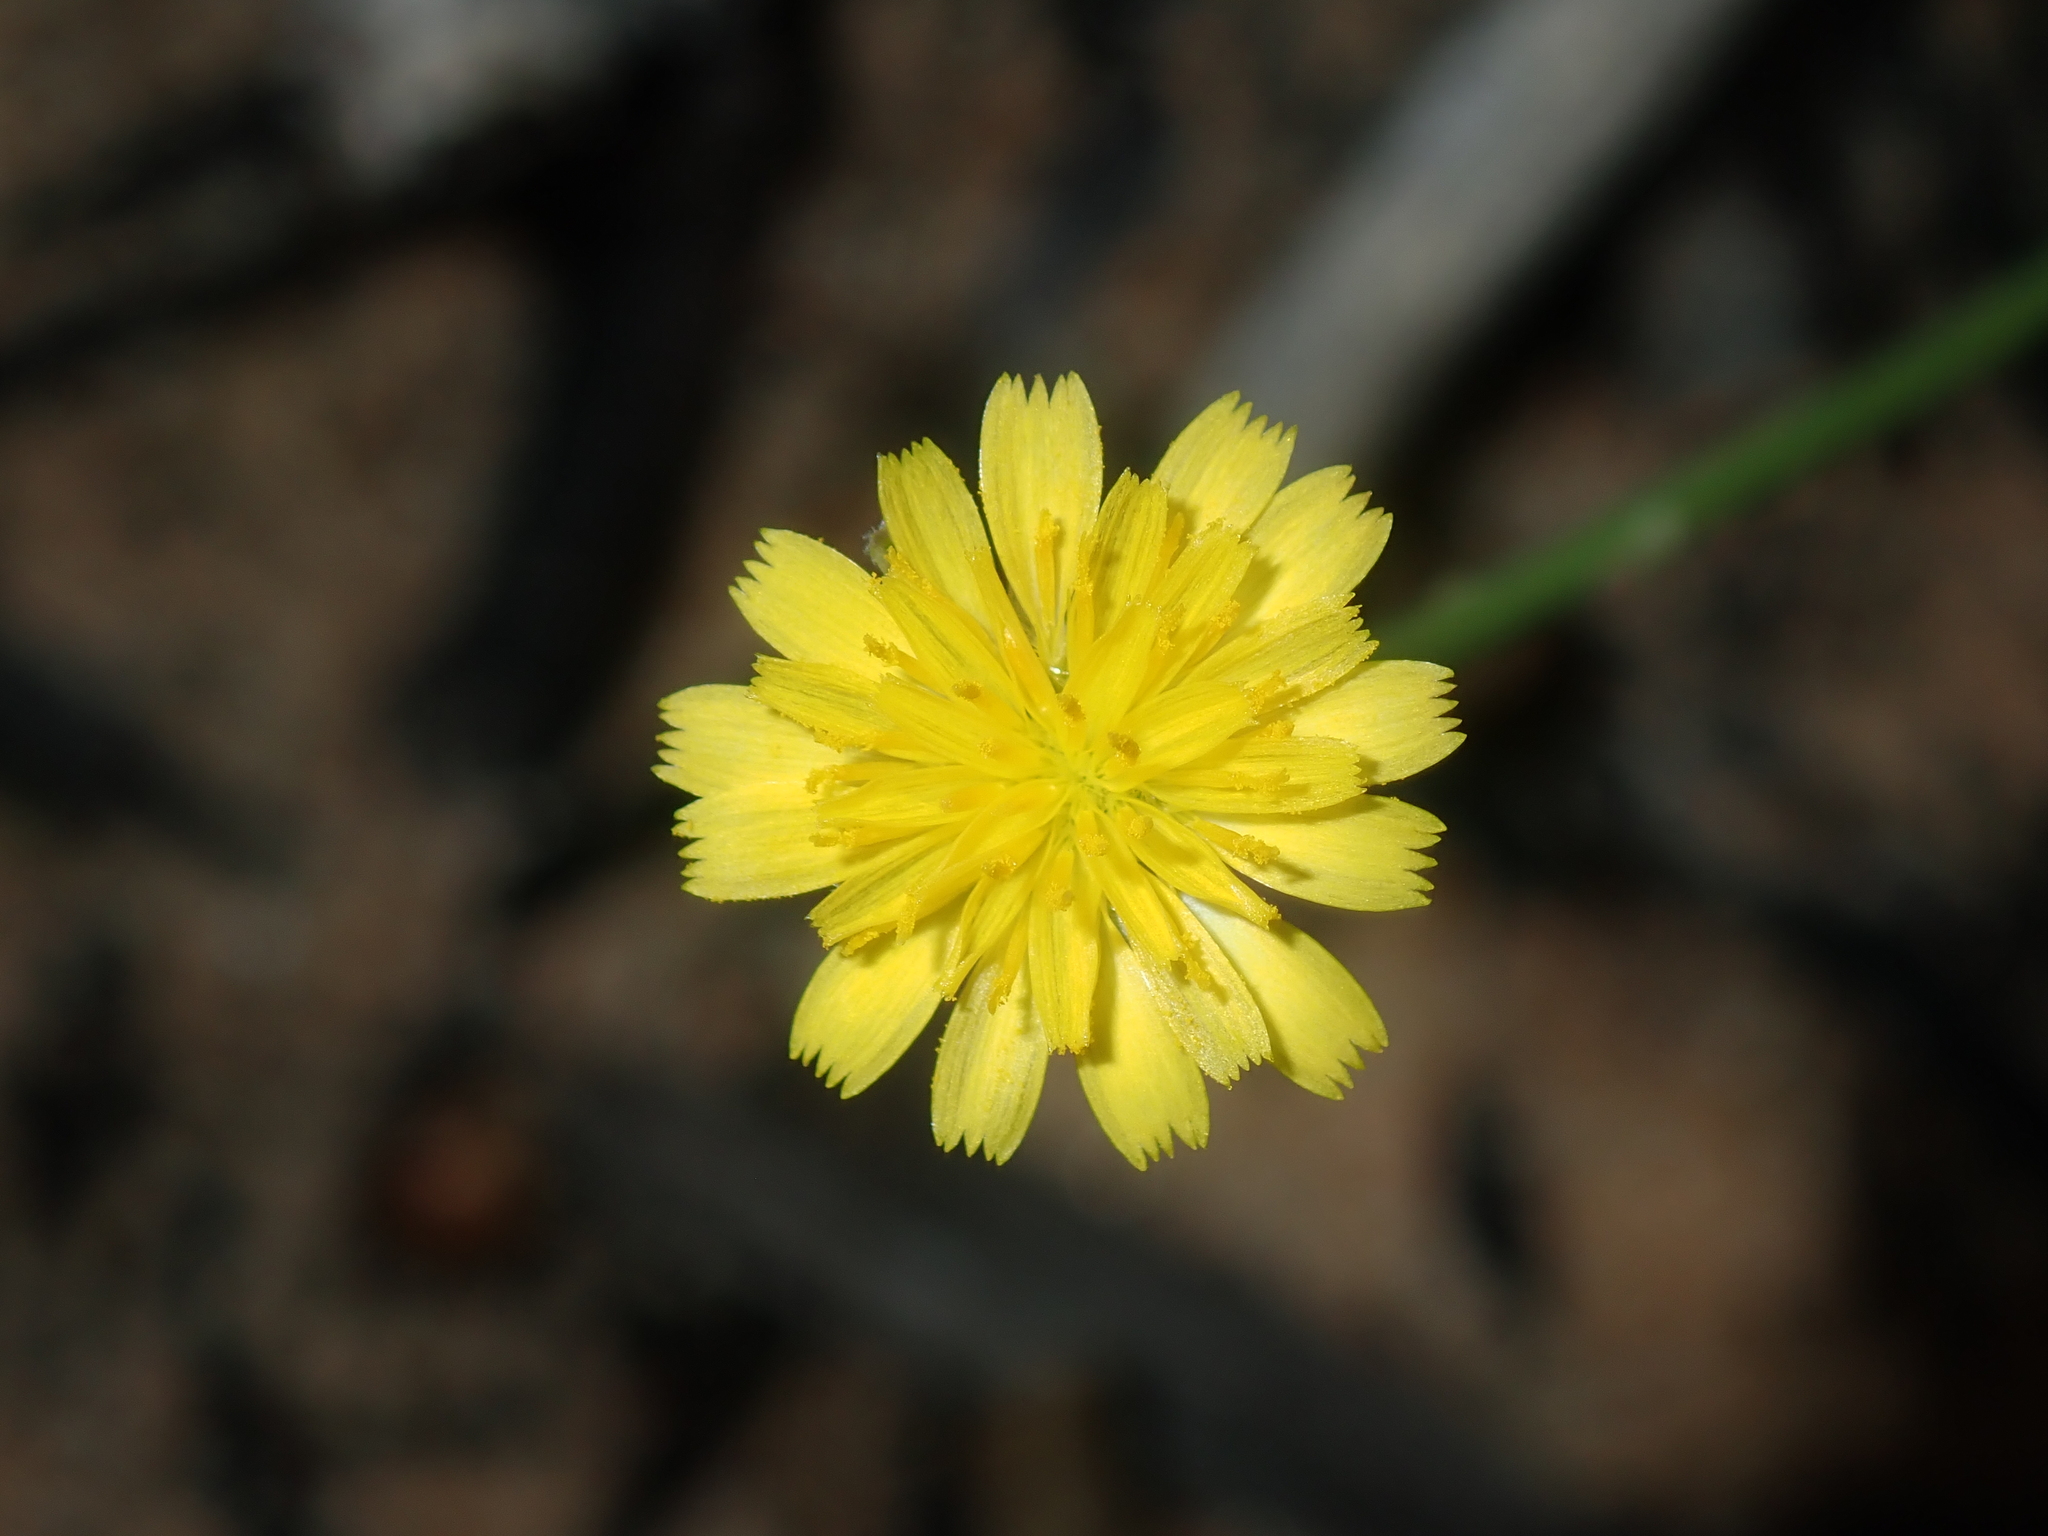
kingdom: Plantae
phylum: Tracheophyta
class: Magnoliopsida
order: Asterales
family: Asteraceae
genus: Hypochaeris
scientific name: Hypochaeris glabra
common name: Smooth catsear
